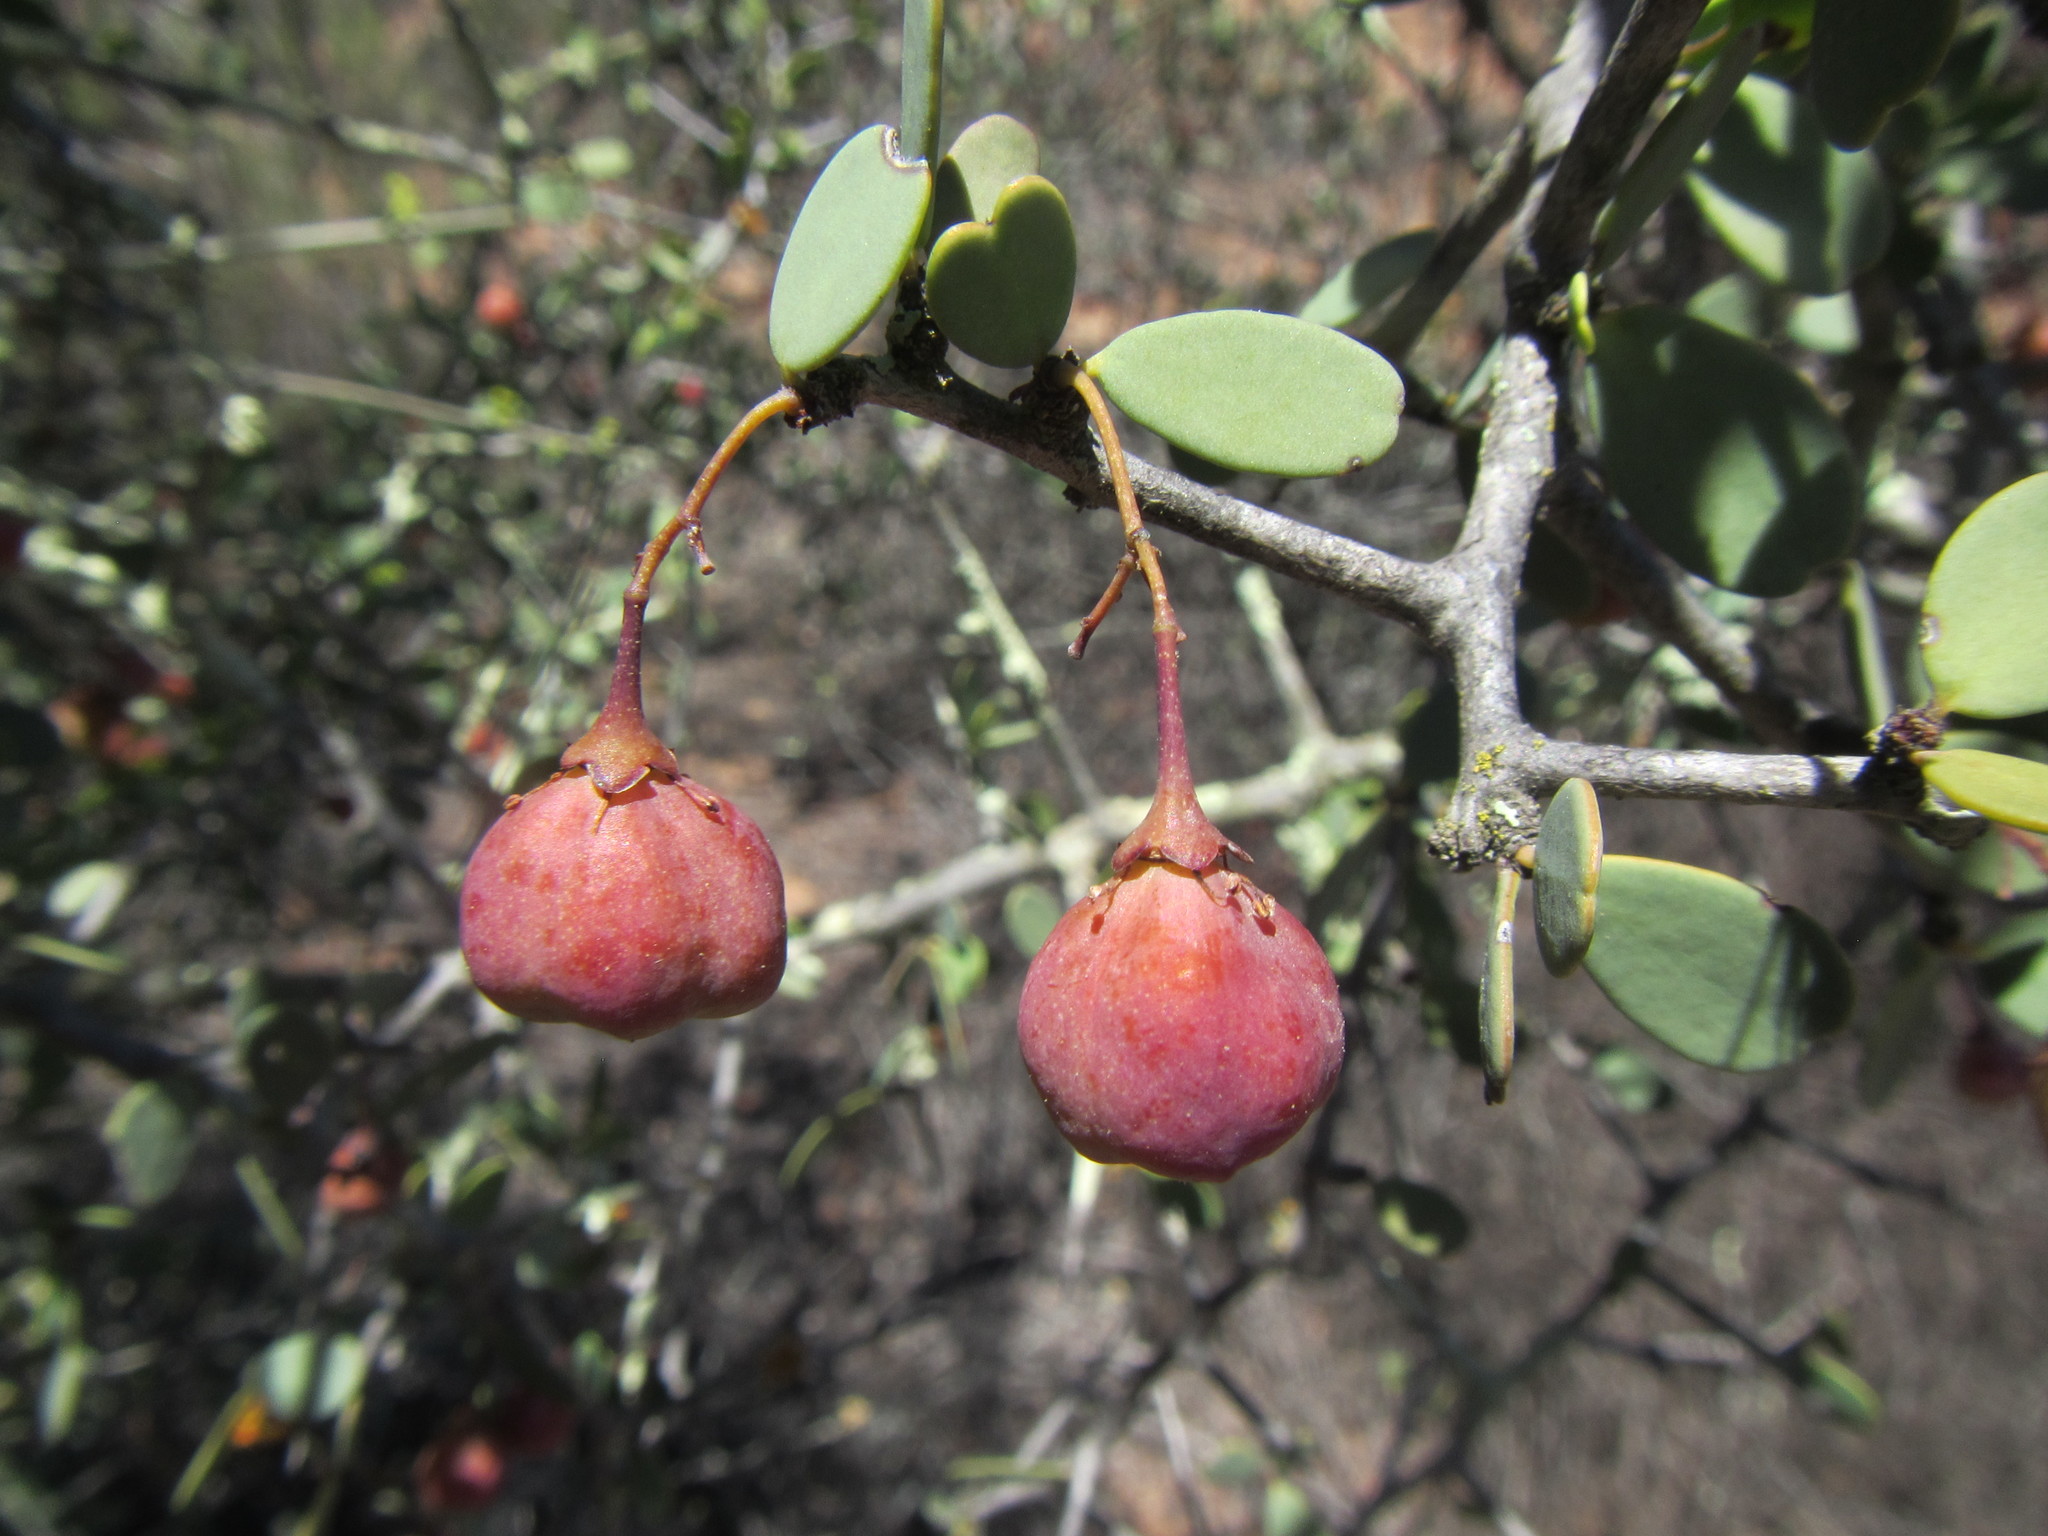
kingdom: Plantae
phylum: Tracheophyta
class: Magnoliopsida
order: Celastrales
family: Celastraceae
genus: Gloveria
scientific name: Gloveria integrifolia
